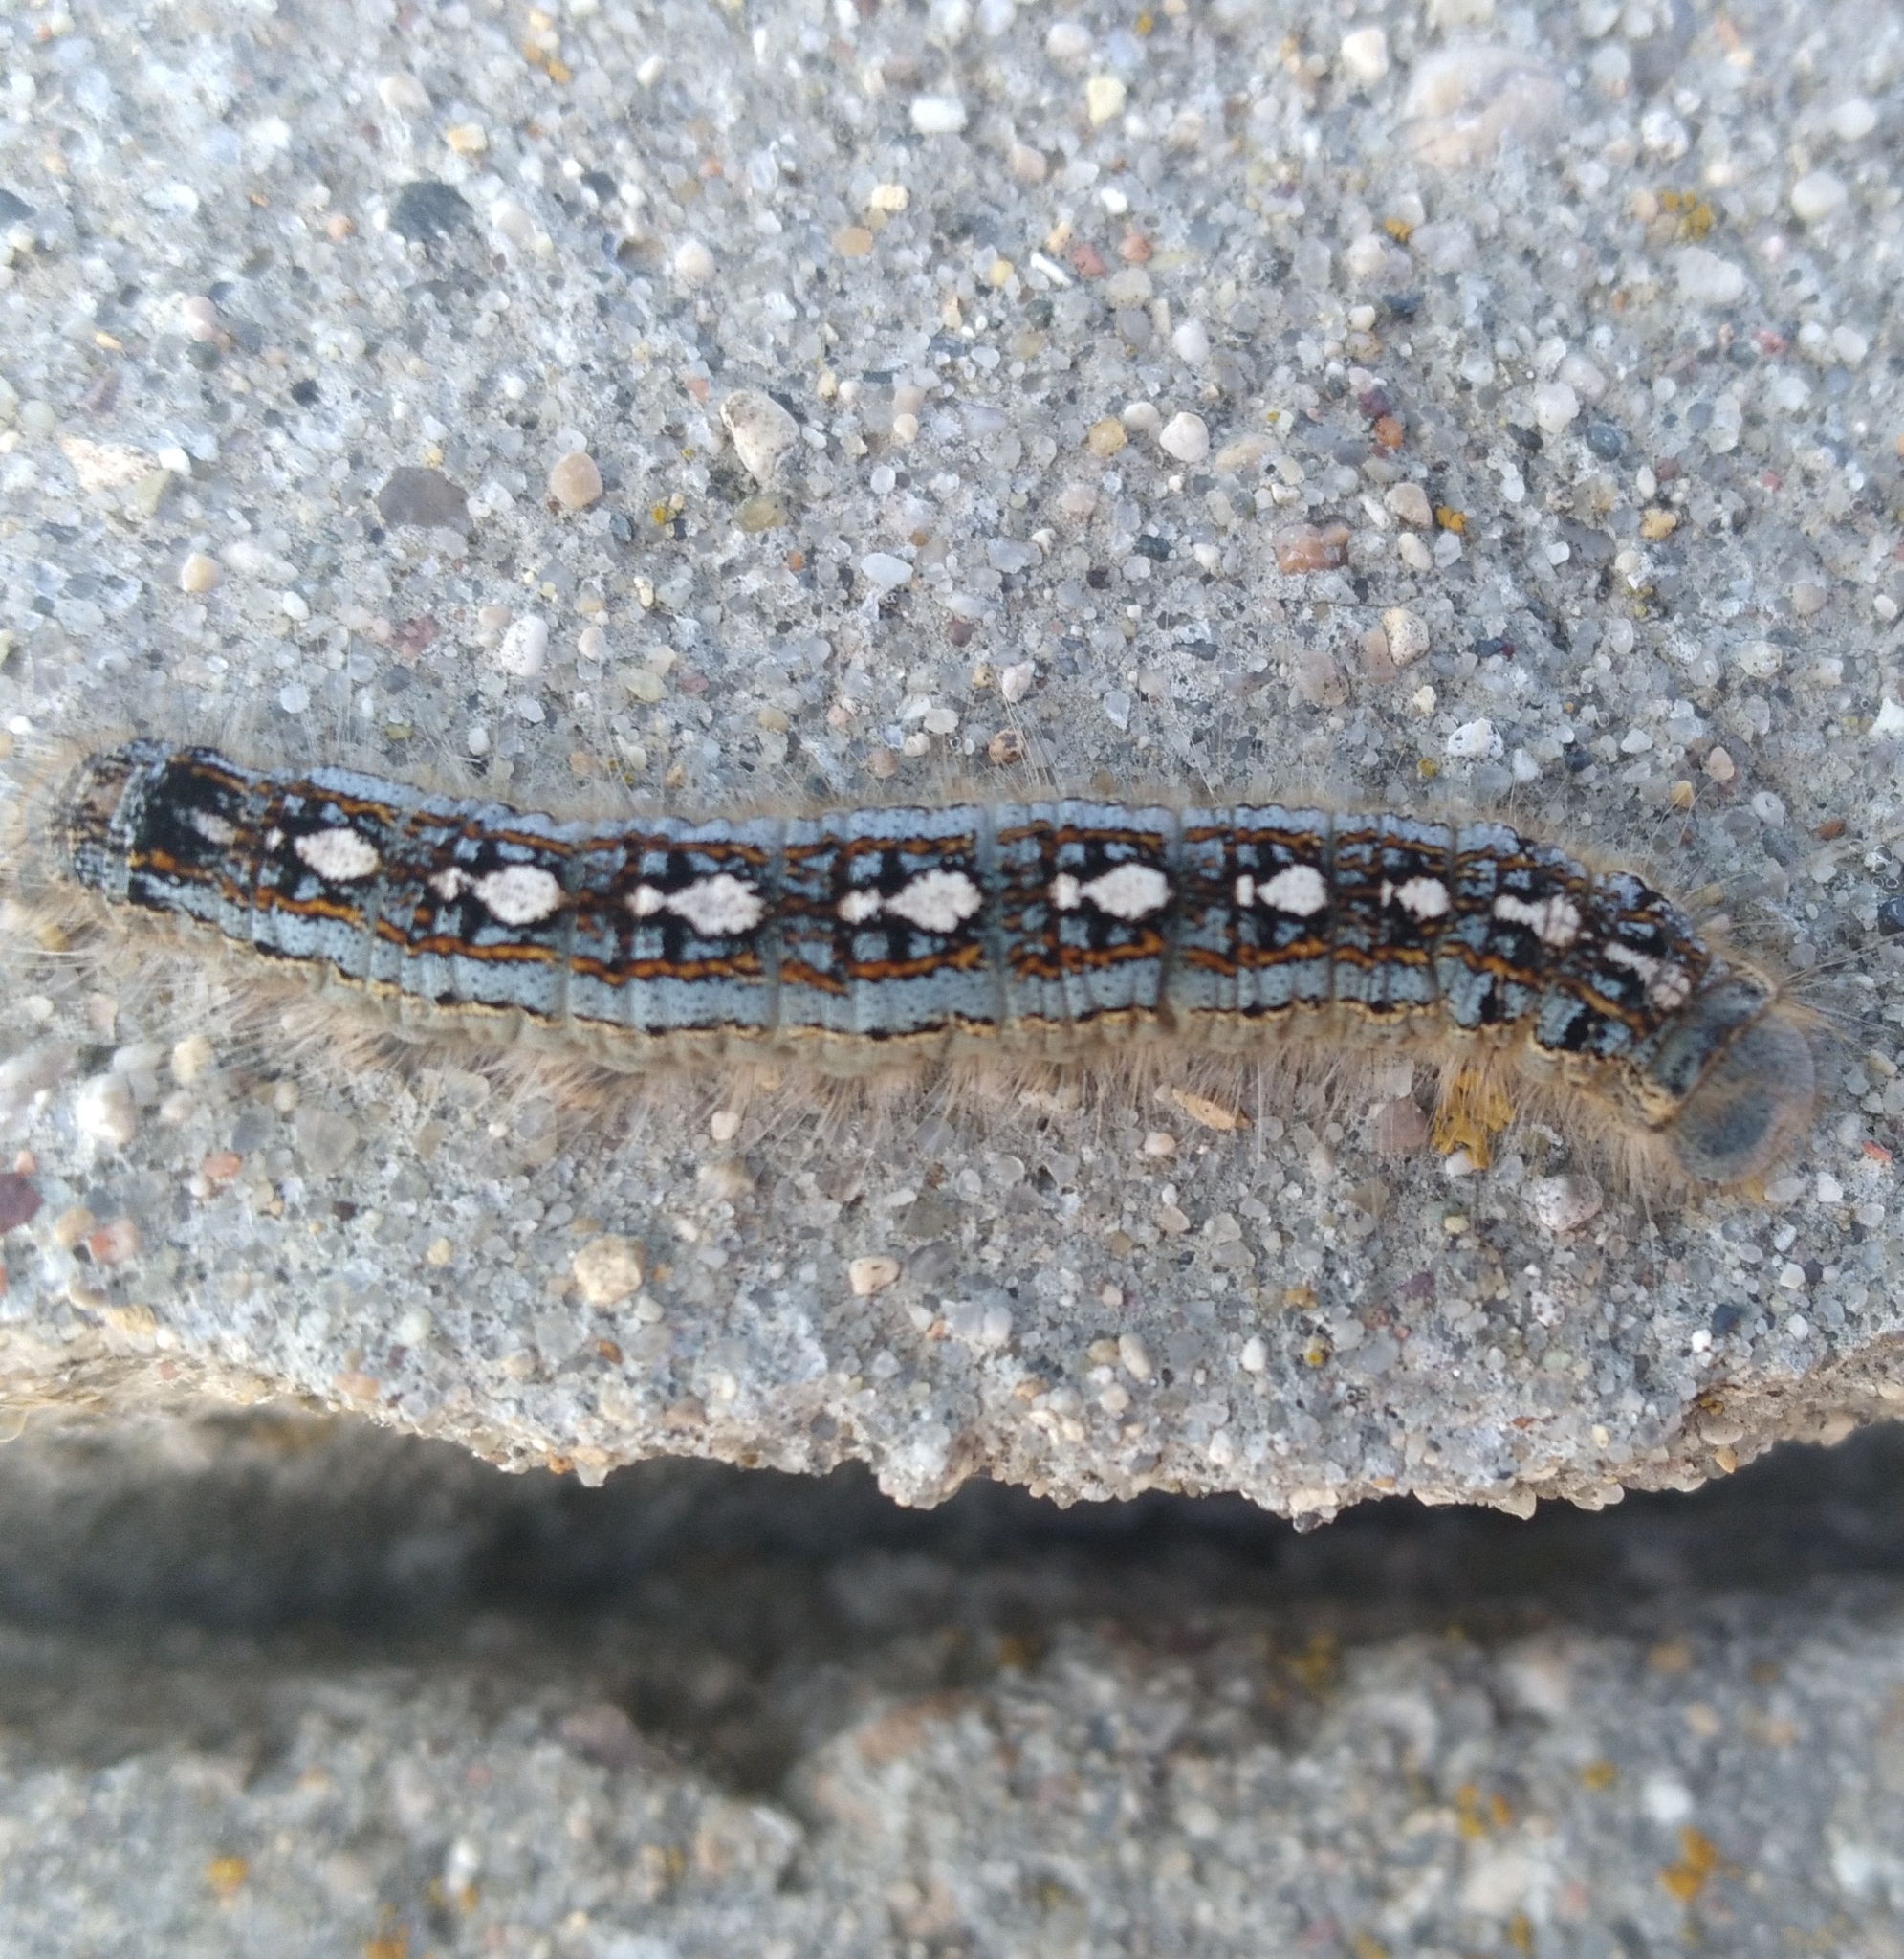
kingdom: Animalia
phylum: Arthropoda
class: Insecta
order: Lepidoptera
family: Lasiocampidae
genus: Malacosoma
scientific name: Malacosoma disstria
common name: Forest tent caterpillar
